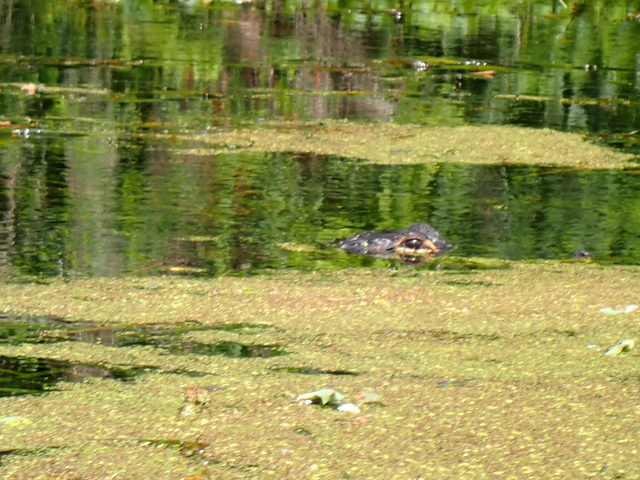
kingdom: Animalia
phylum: Chordata
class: Crocodylia
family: Alligatoridae
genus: Alligator
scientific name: Alligator mississippiensis
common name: American alligator
